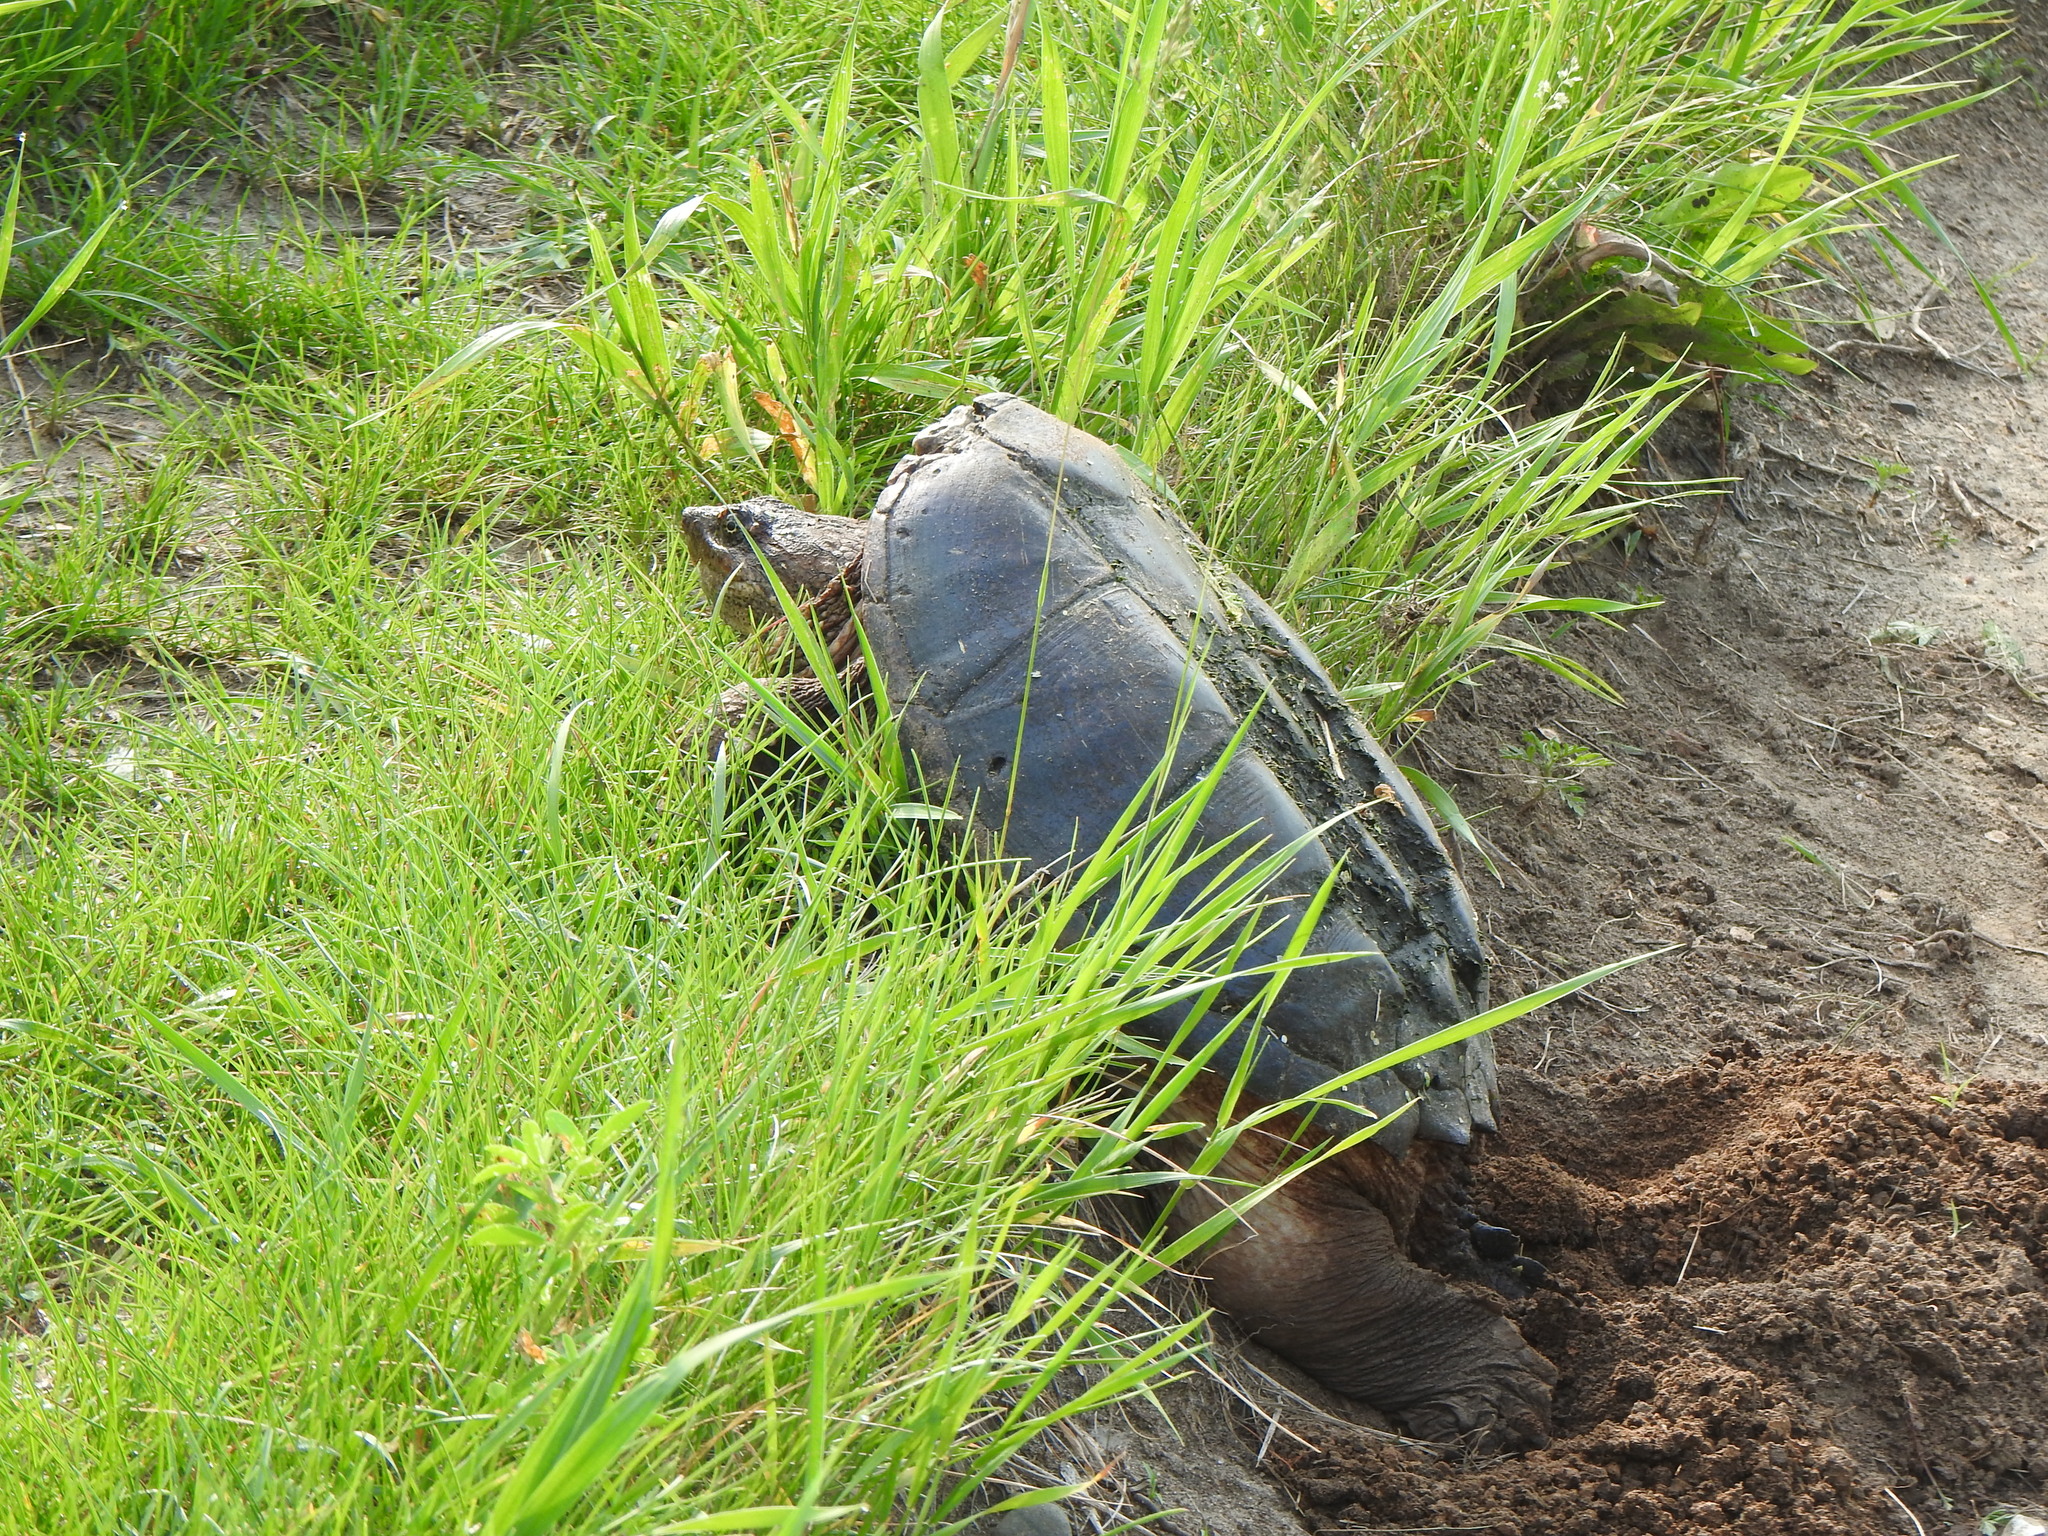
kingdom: Animalia
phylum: Chordata
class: Testudines
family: Chelydridae
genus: Chelydra
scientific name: Chelydra serpentina
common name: Common snapping turtle
